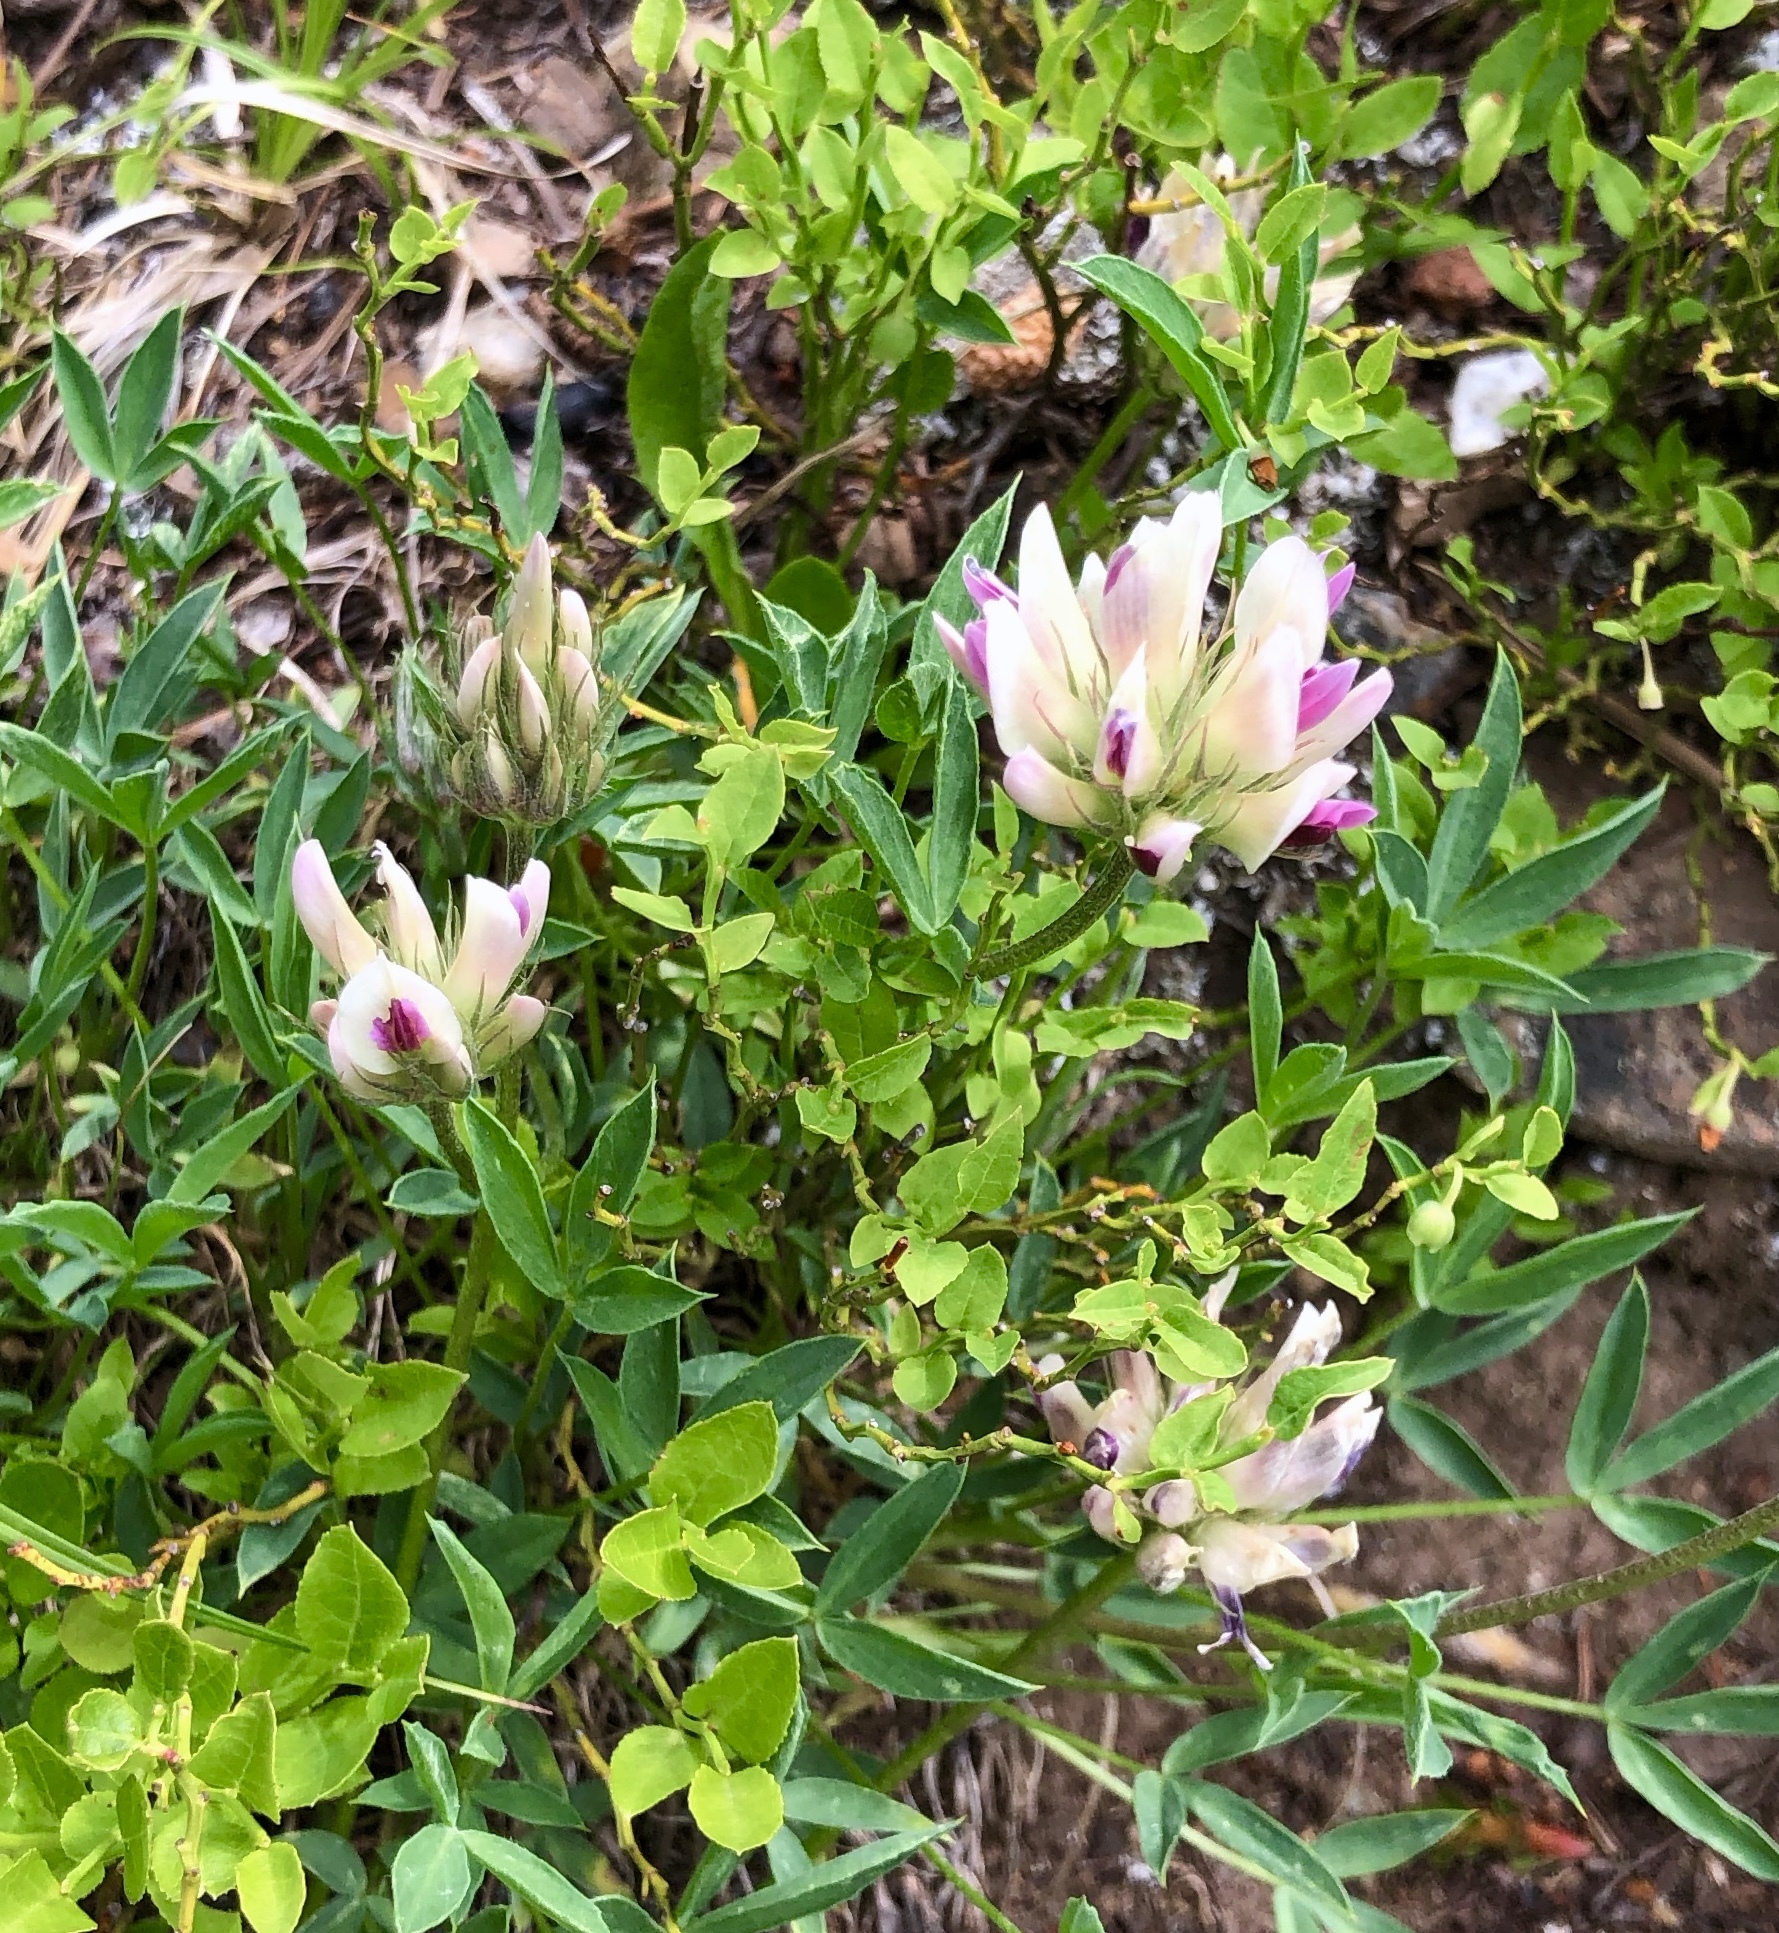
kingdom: Plantae
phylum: Tracheophyta
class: Magnoliopsida
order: Fabales
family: Fabaceae
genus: Trifolium
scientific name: Trifolium dasyphyllum
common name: Whip-root clover
